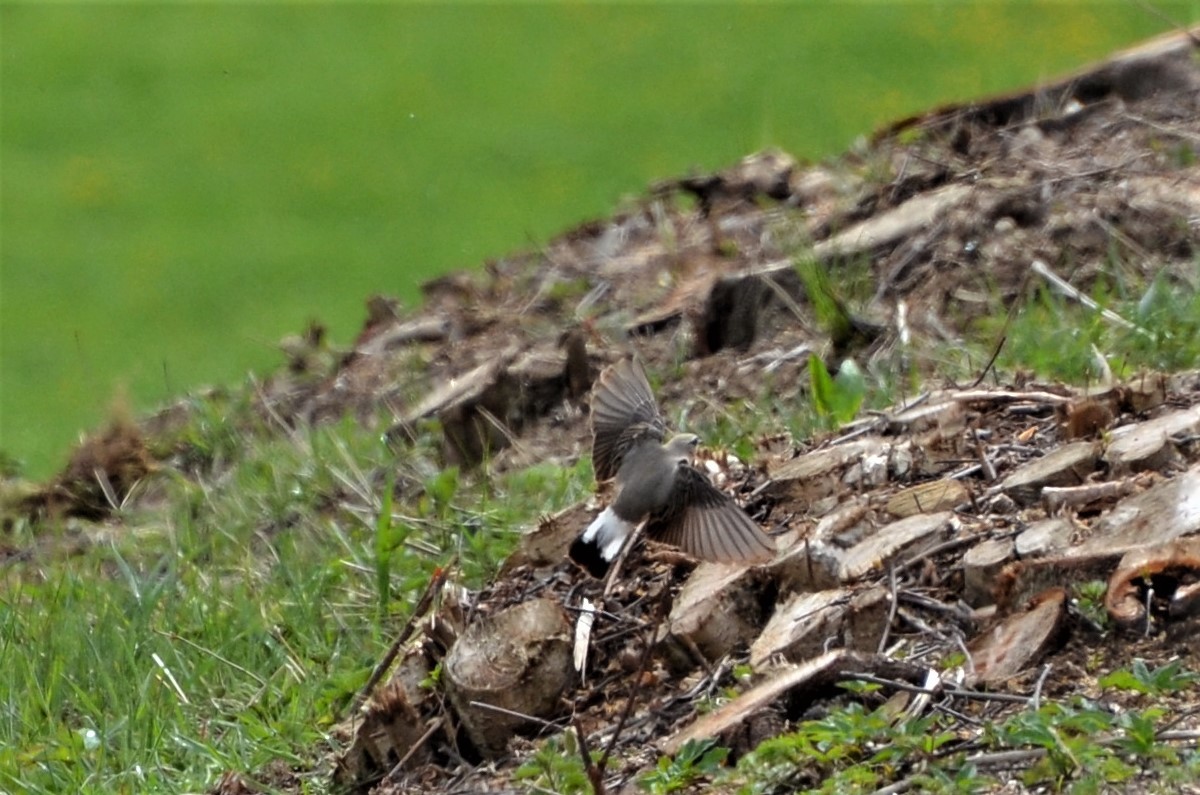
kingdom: Animalia
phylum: Chordata
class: Aves
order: Passeriformes
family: Muscicapidae
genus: Oenanthe
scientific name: Oenanthe oenanthe
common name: Northern wheatear
